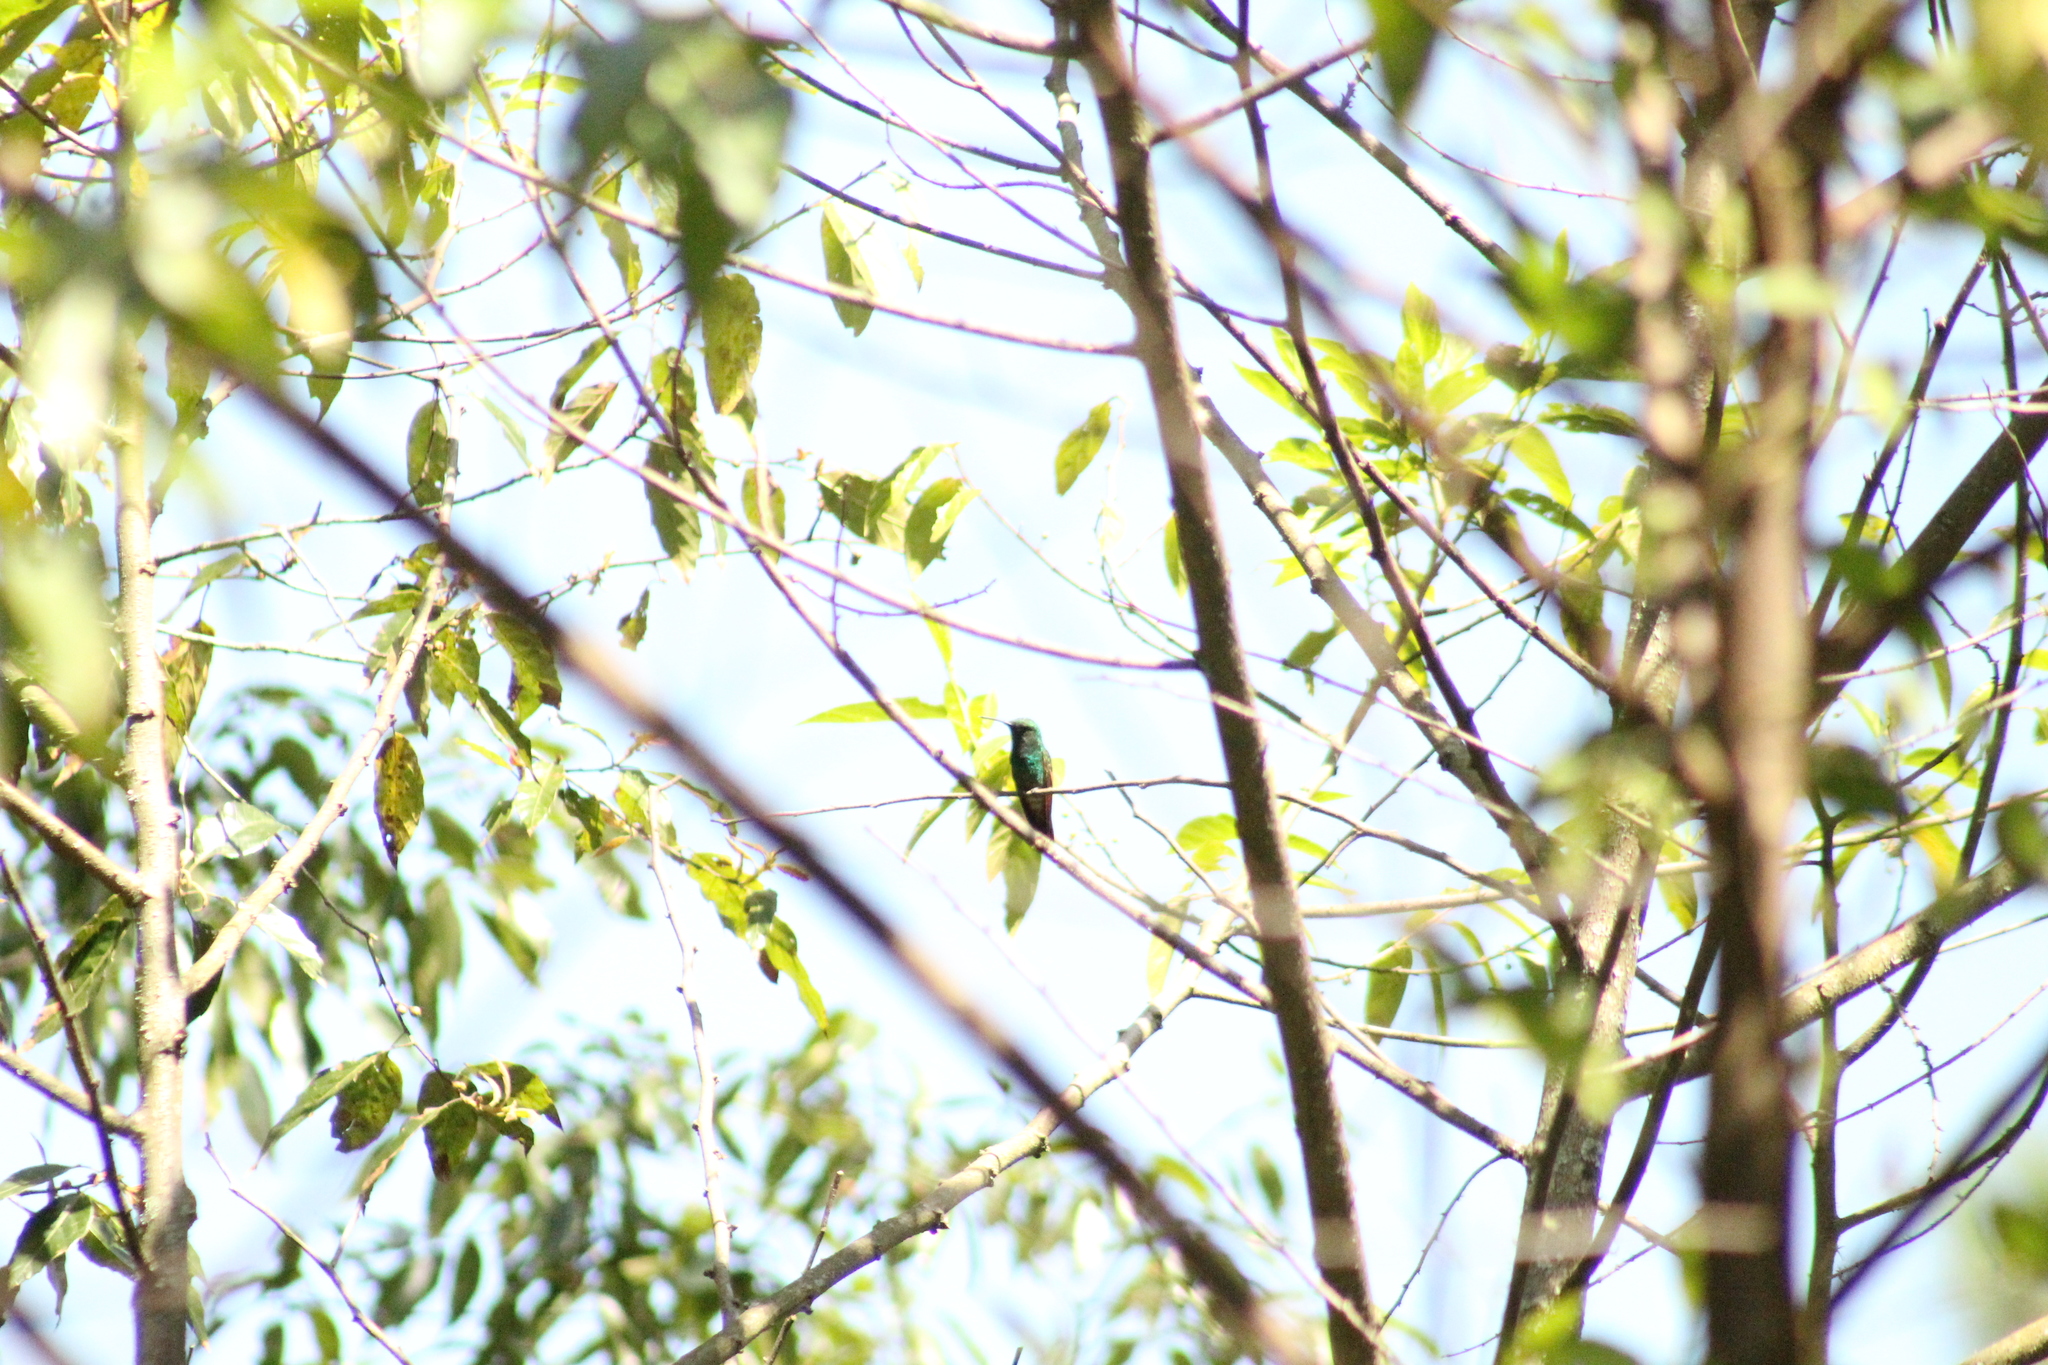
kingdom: Animalia
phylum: Chordata
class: Aves
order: Apodiformes
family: Trochilidae
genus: Saucerottia
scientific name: Saucerottia beryllina
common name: Berylline hummingbird
